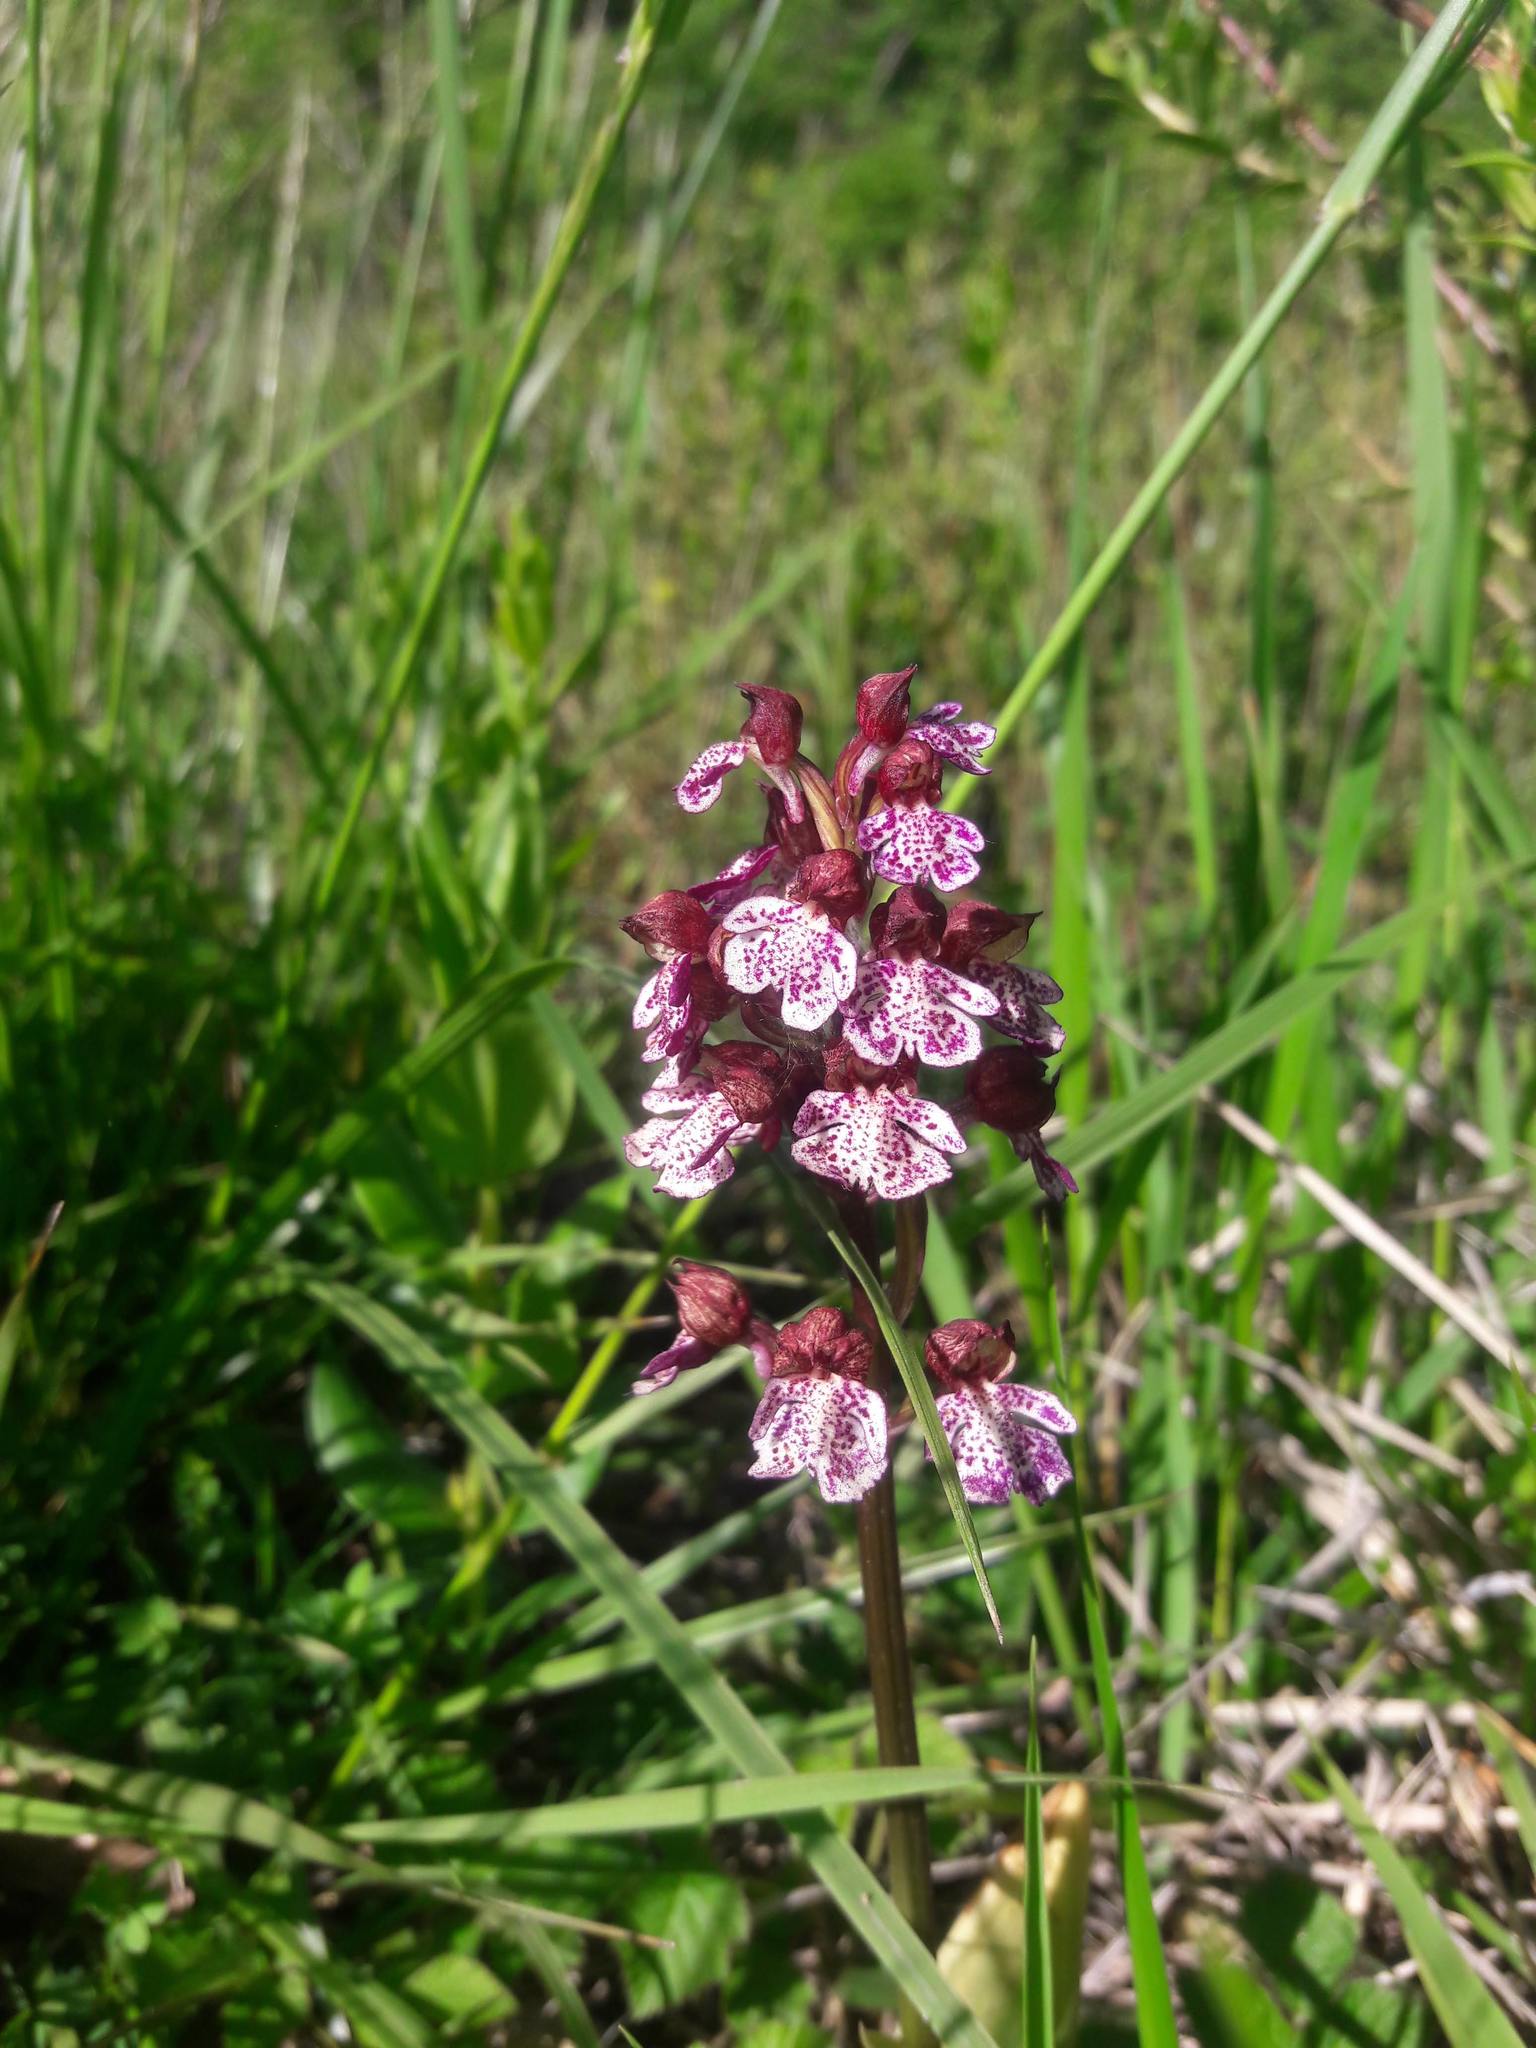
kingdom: Plantae
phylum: Tracheophyta
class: Liliopsida
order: Asparagales
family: Orchidaceae
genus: Orchis
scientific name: Orchis purpurea
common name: Lady orchid
